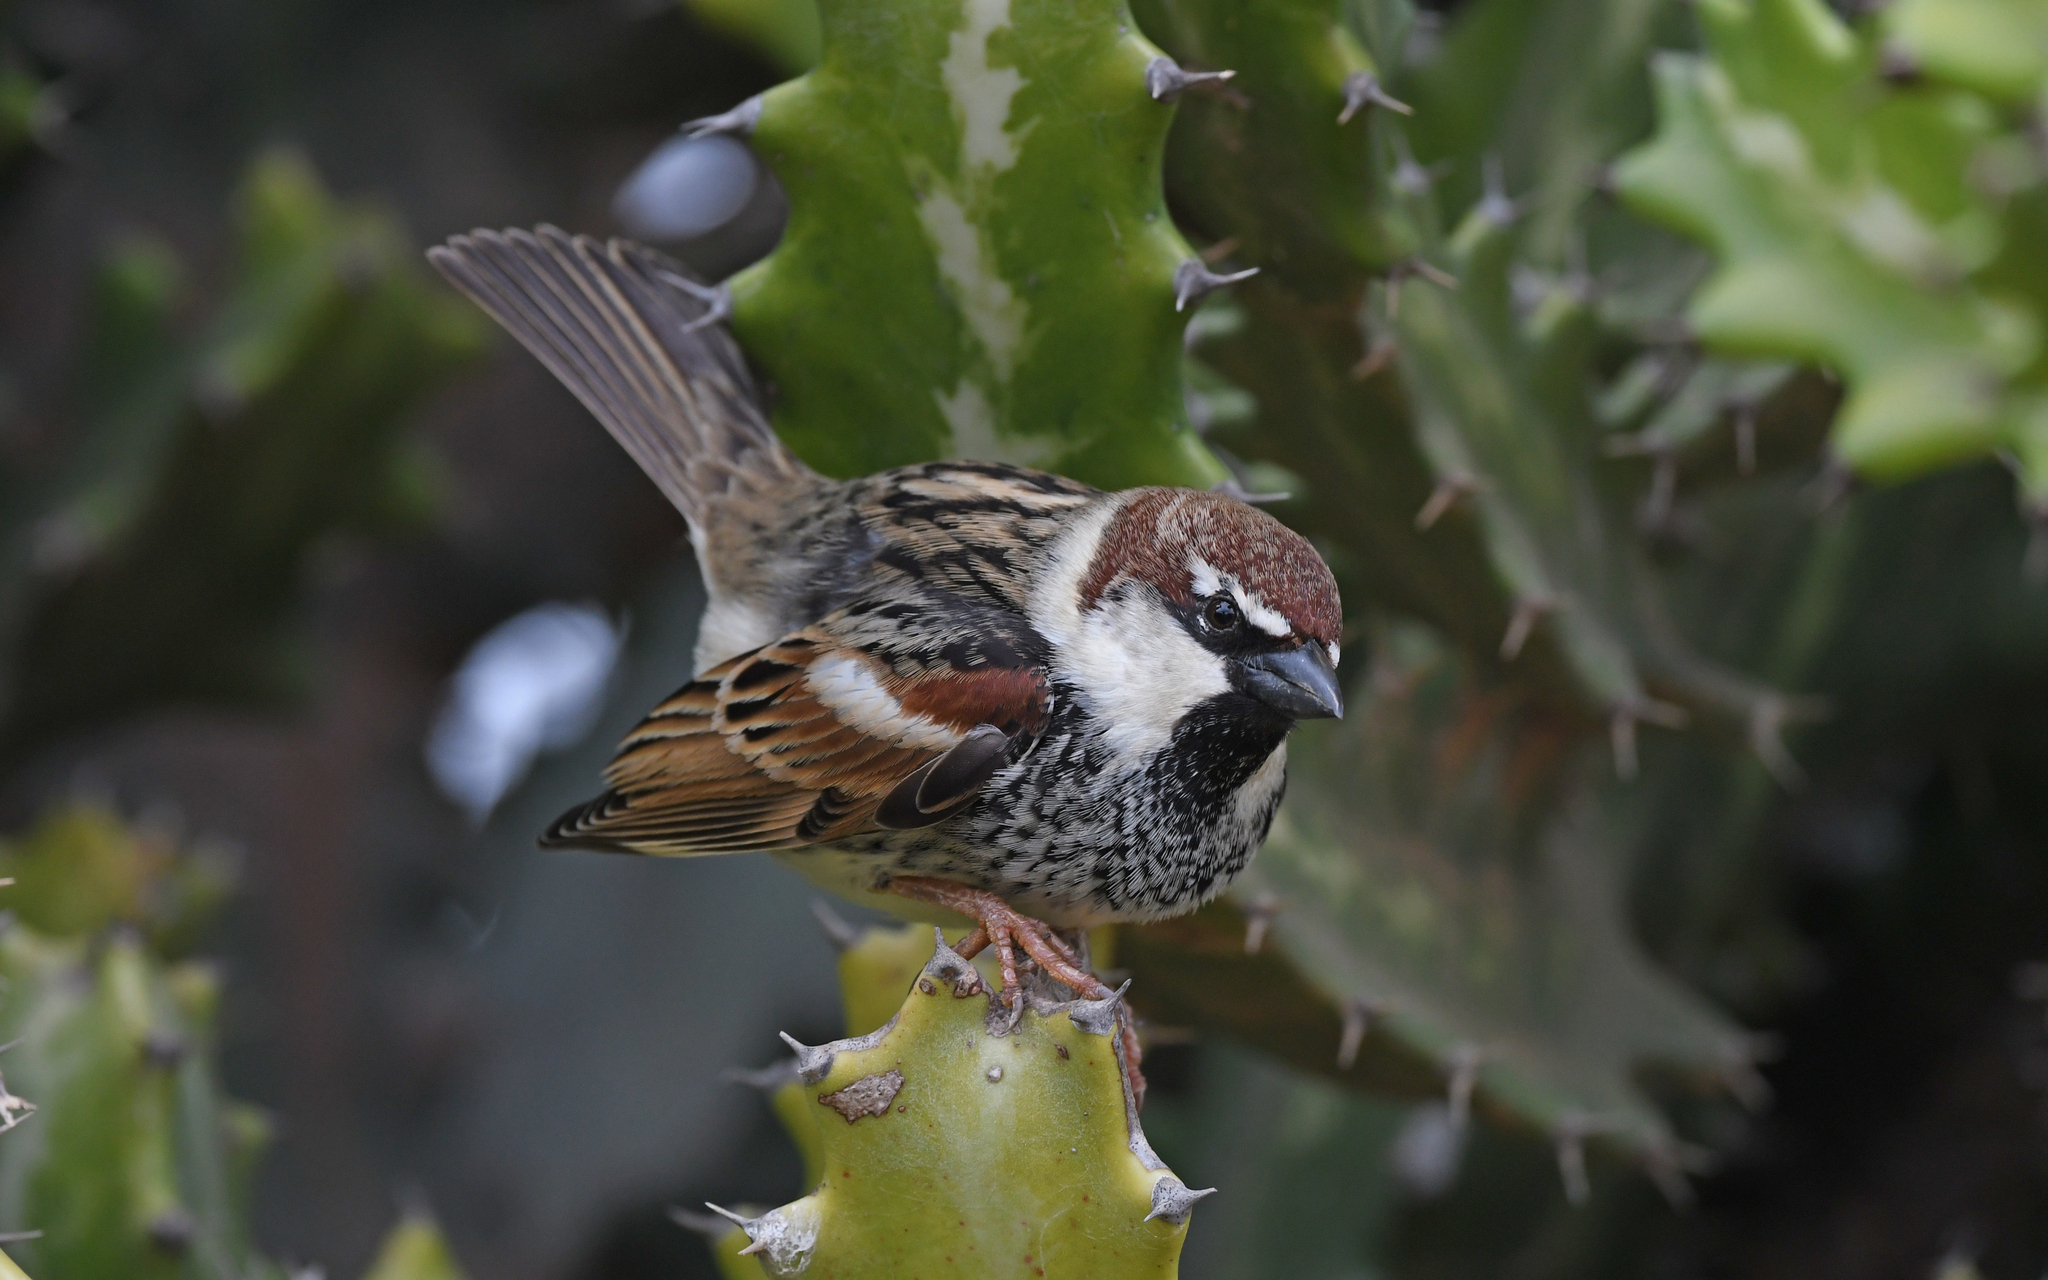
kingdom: Animalia
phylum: Chordata
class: Aves
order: Passeriformes
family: Passeridae
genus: Passer
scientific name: Passer hispaniolensis
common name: Spanish sparrow
